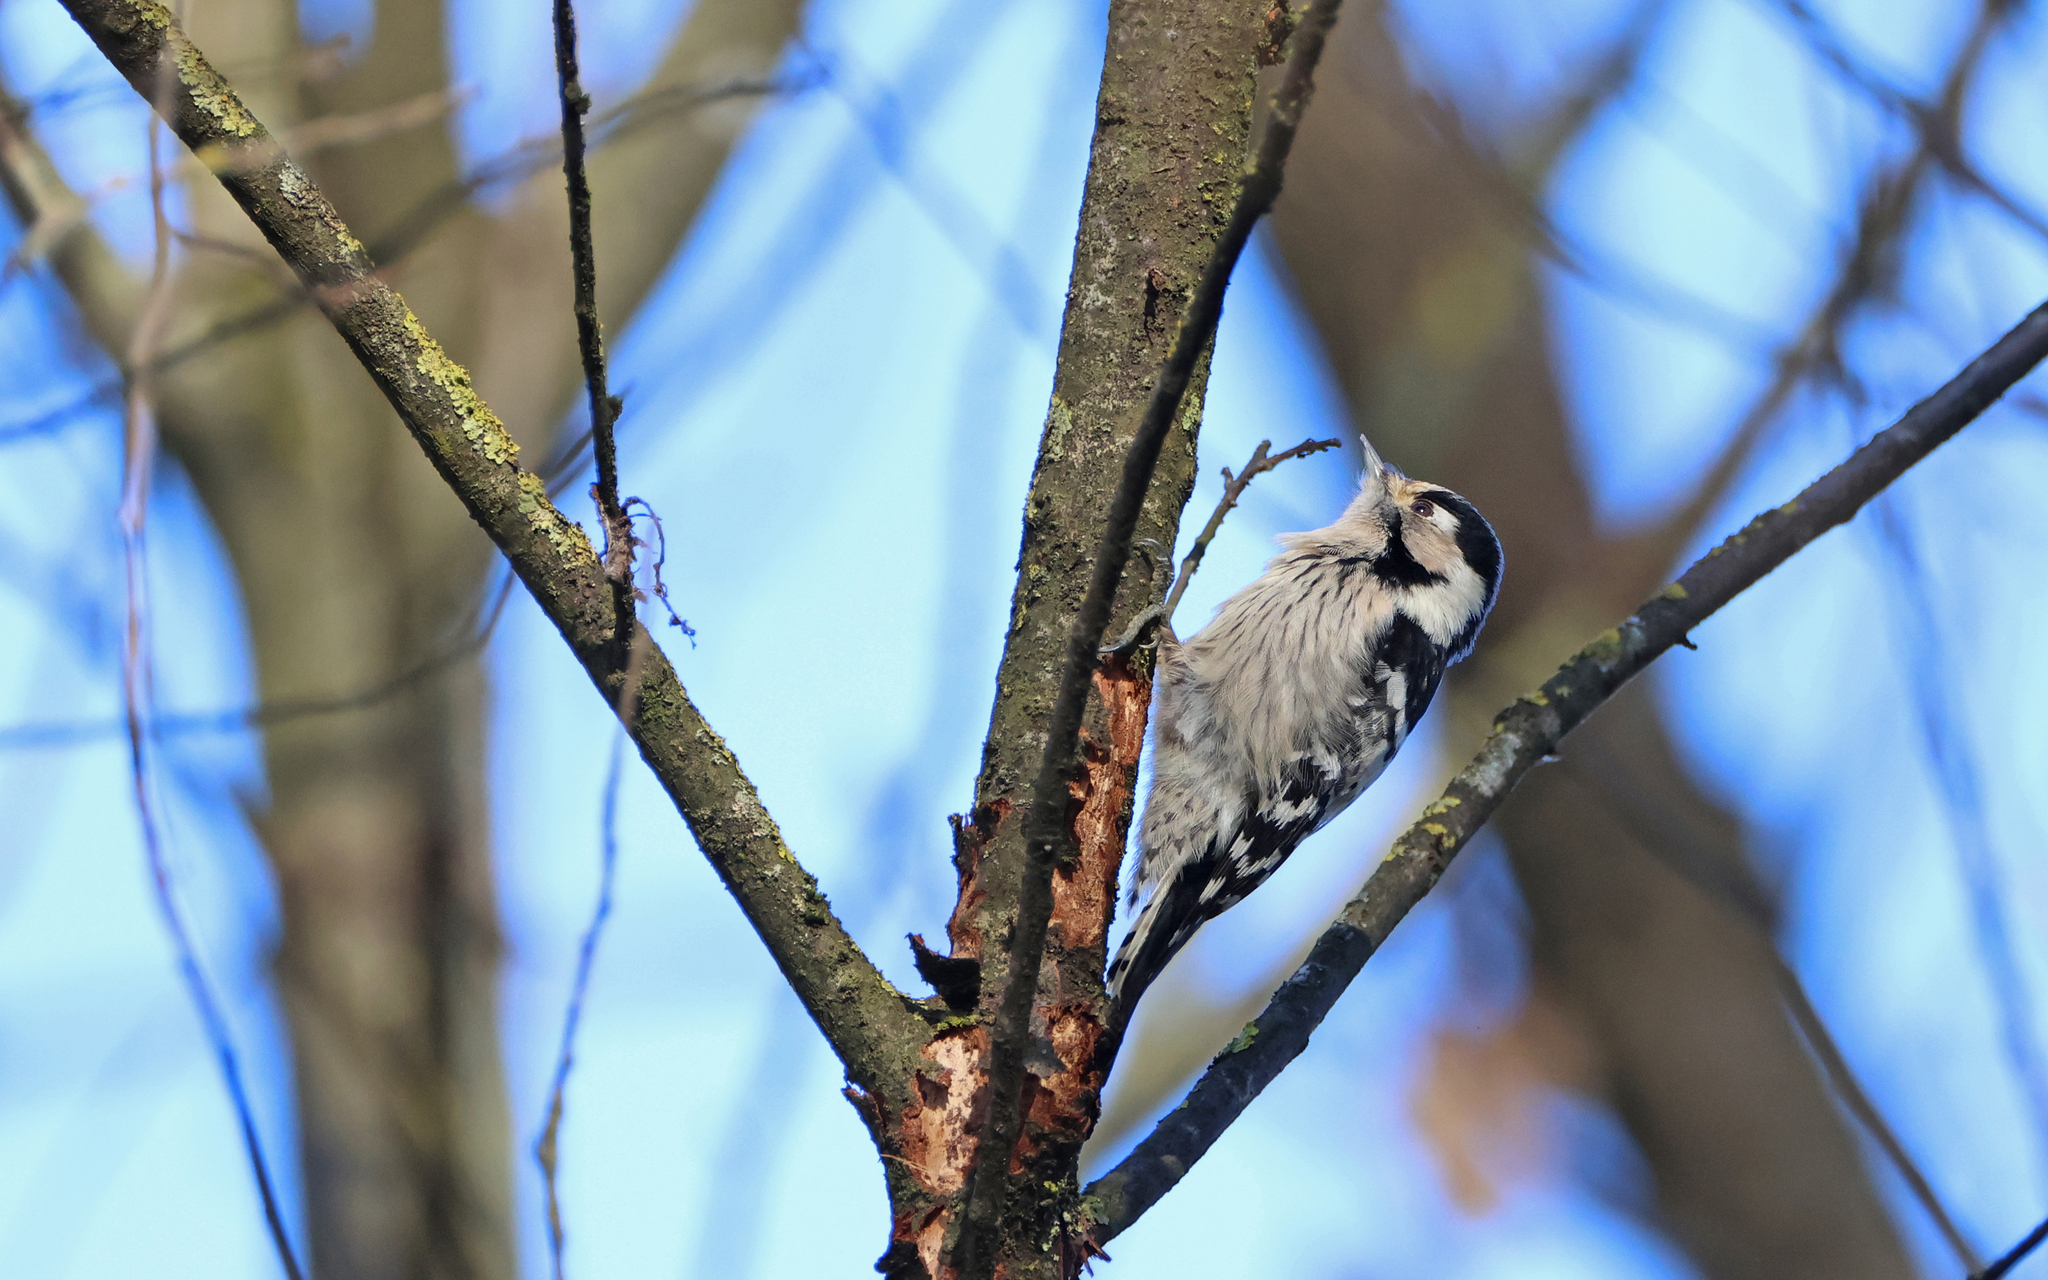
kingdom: Animalia
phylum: Chordata
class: Aves
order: Piciformes
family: Picidae
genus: Dryobates
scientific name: Dryobates minor
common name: Lesser spotted woodpecker
